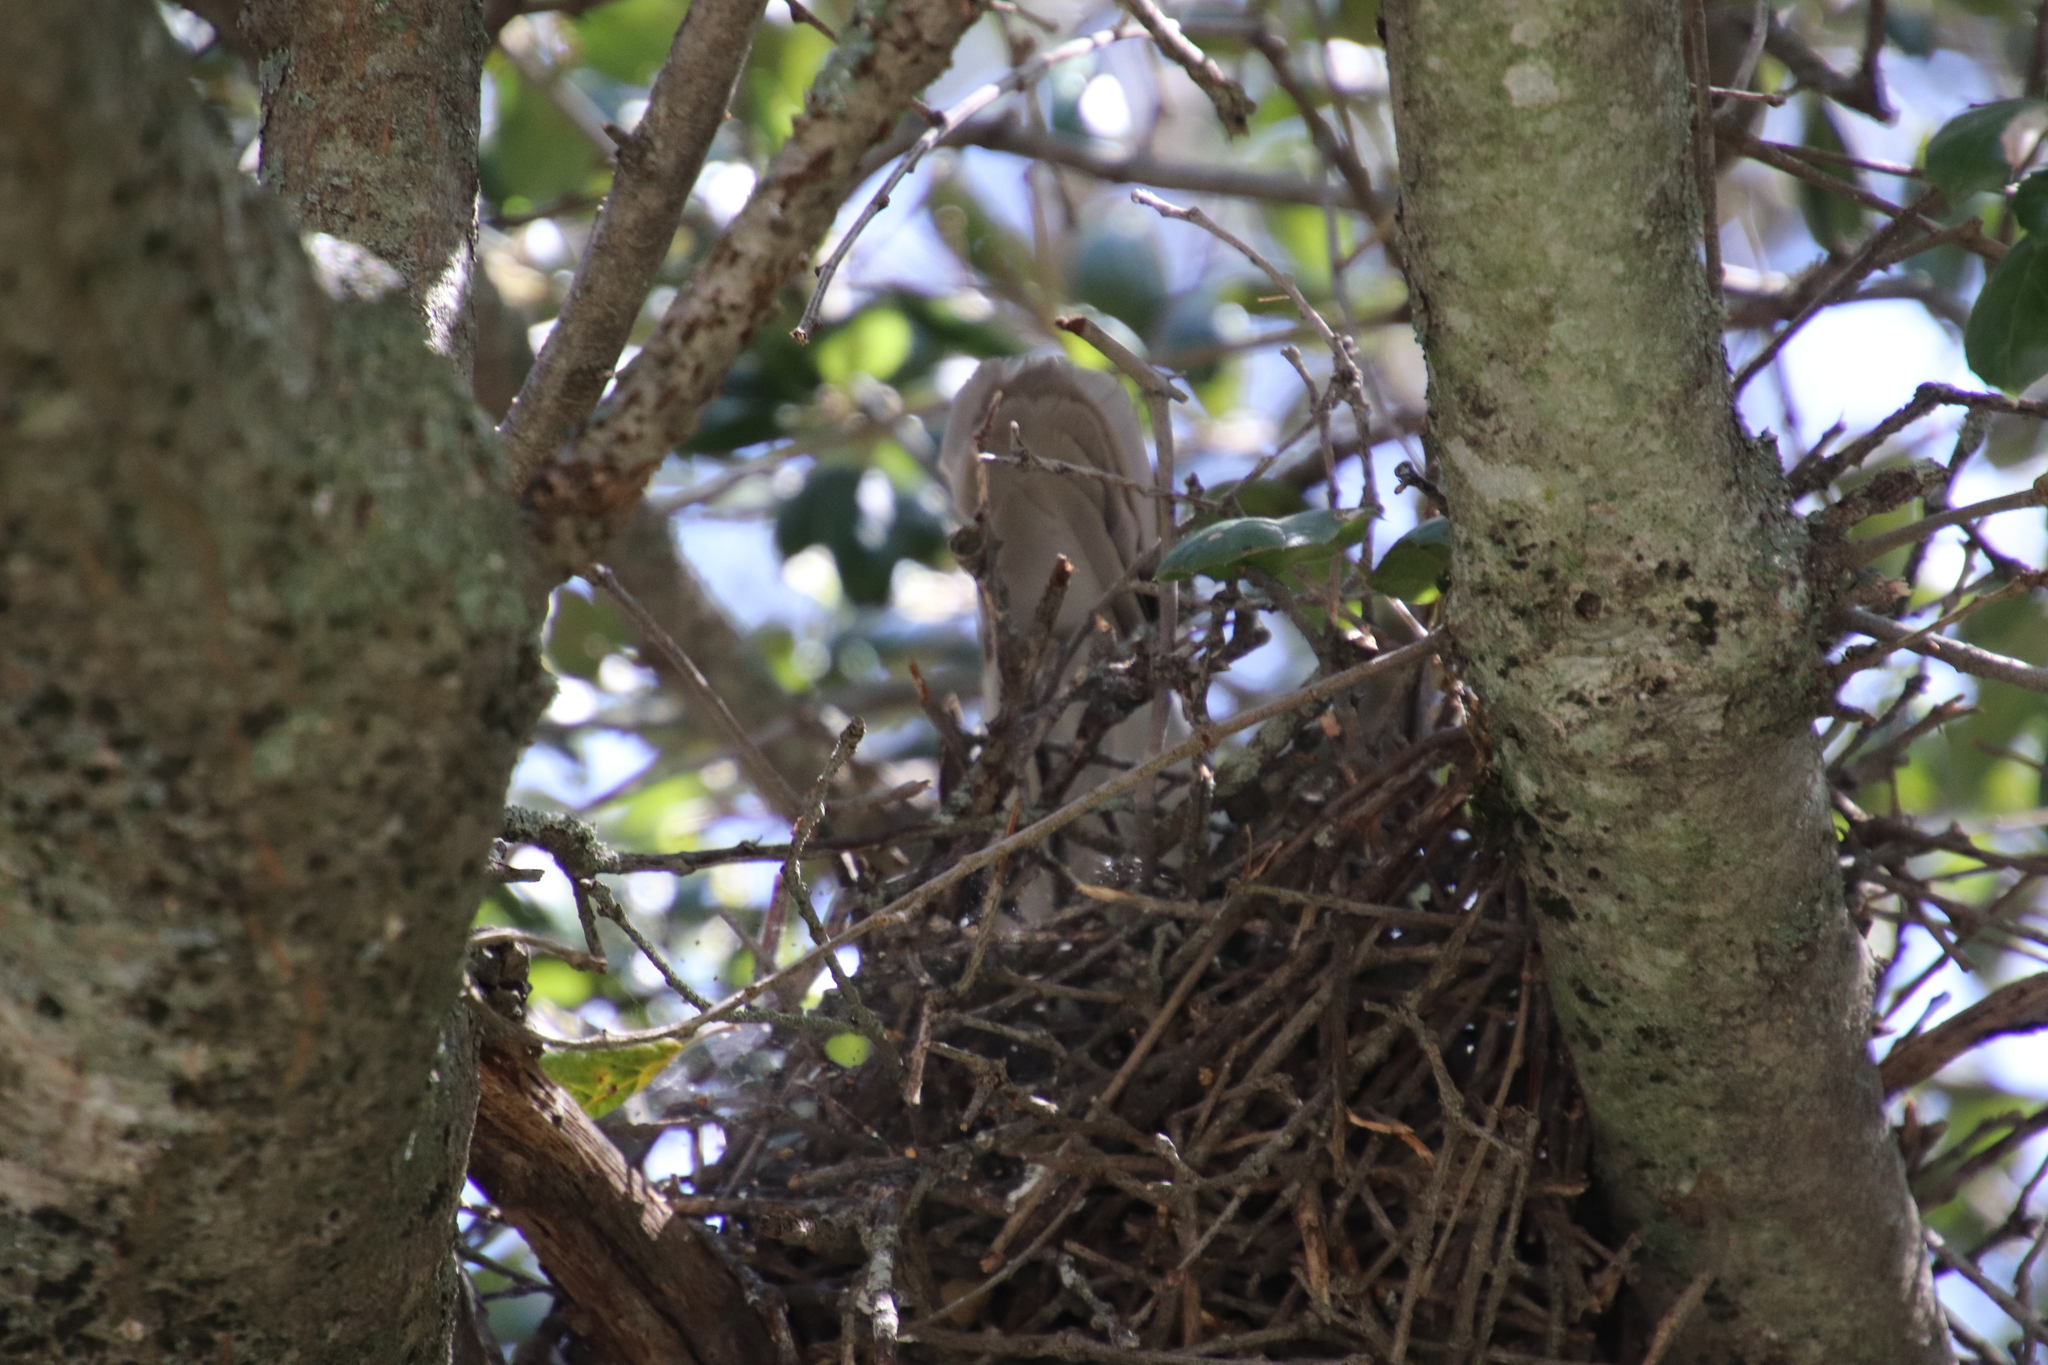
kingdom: Animalia
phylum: Chordata
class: Aves
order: Columbiformes
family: Columbidae
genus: Patagioenas
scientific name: Patagioenas fasciata
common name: Band-tailed pigeon
